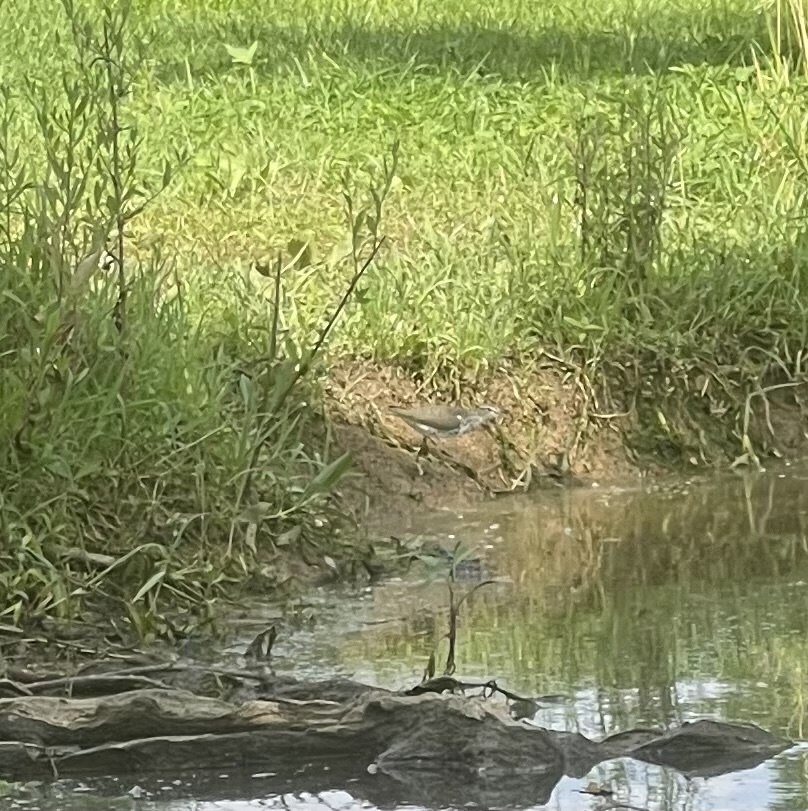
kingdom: Animalia
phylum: Chordata
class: Aves
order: Charadriiformes
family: Scolopacidae
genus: Actitis
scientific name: Actitis macularius
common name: Spotted sandpiper
